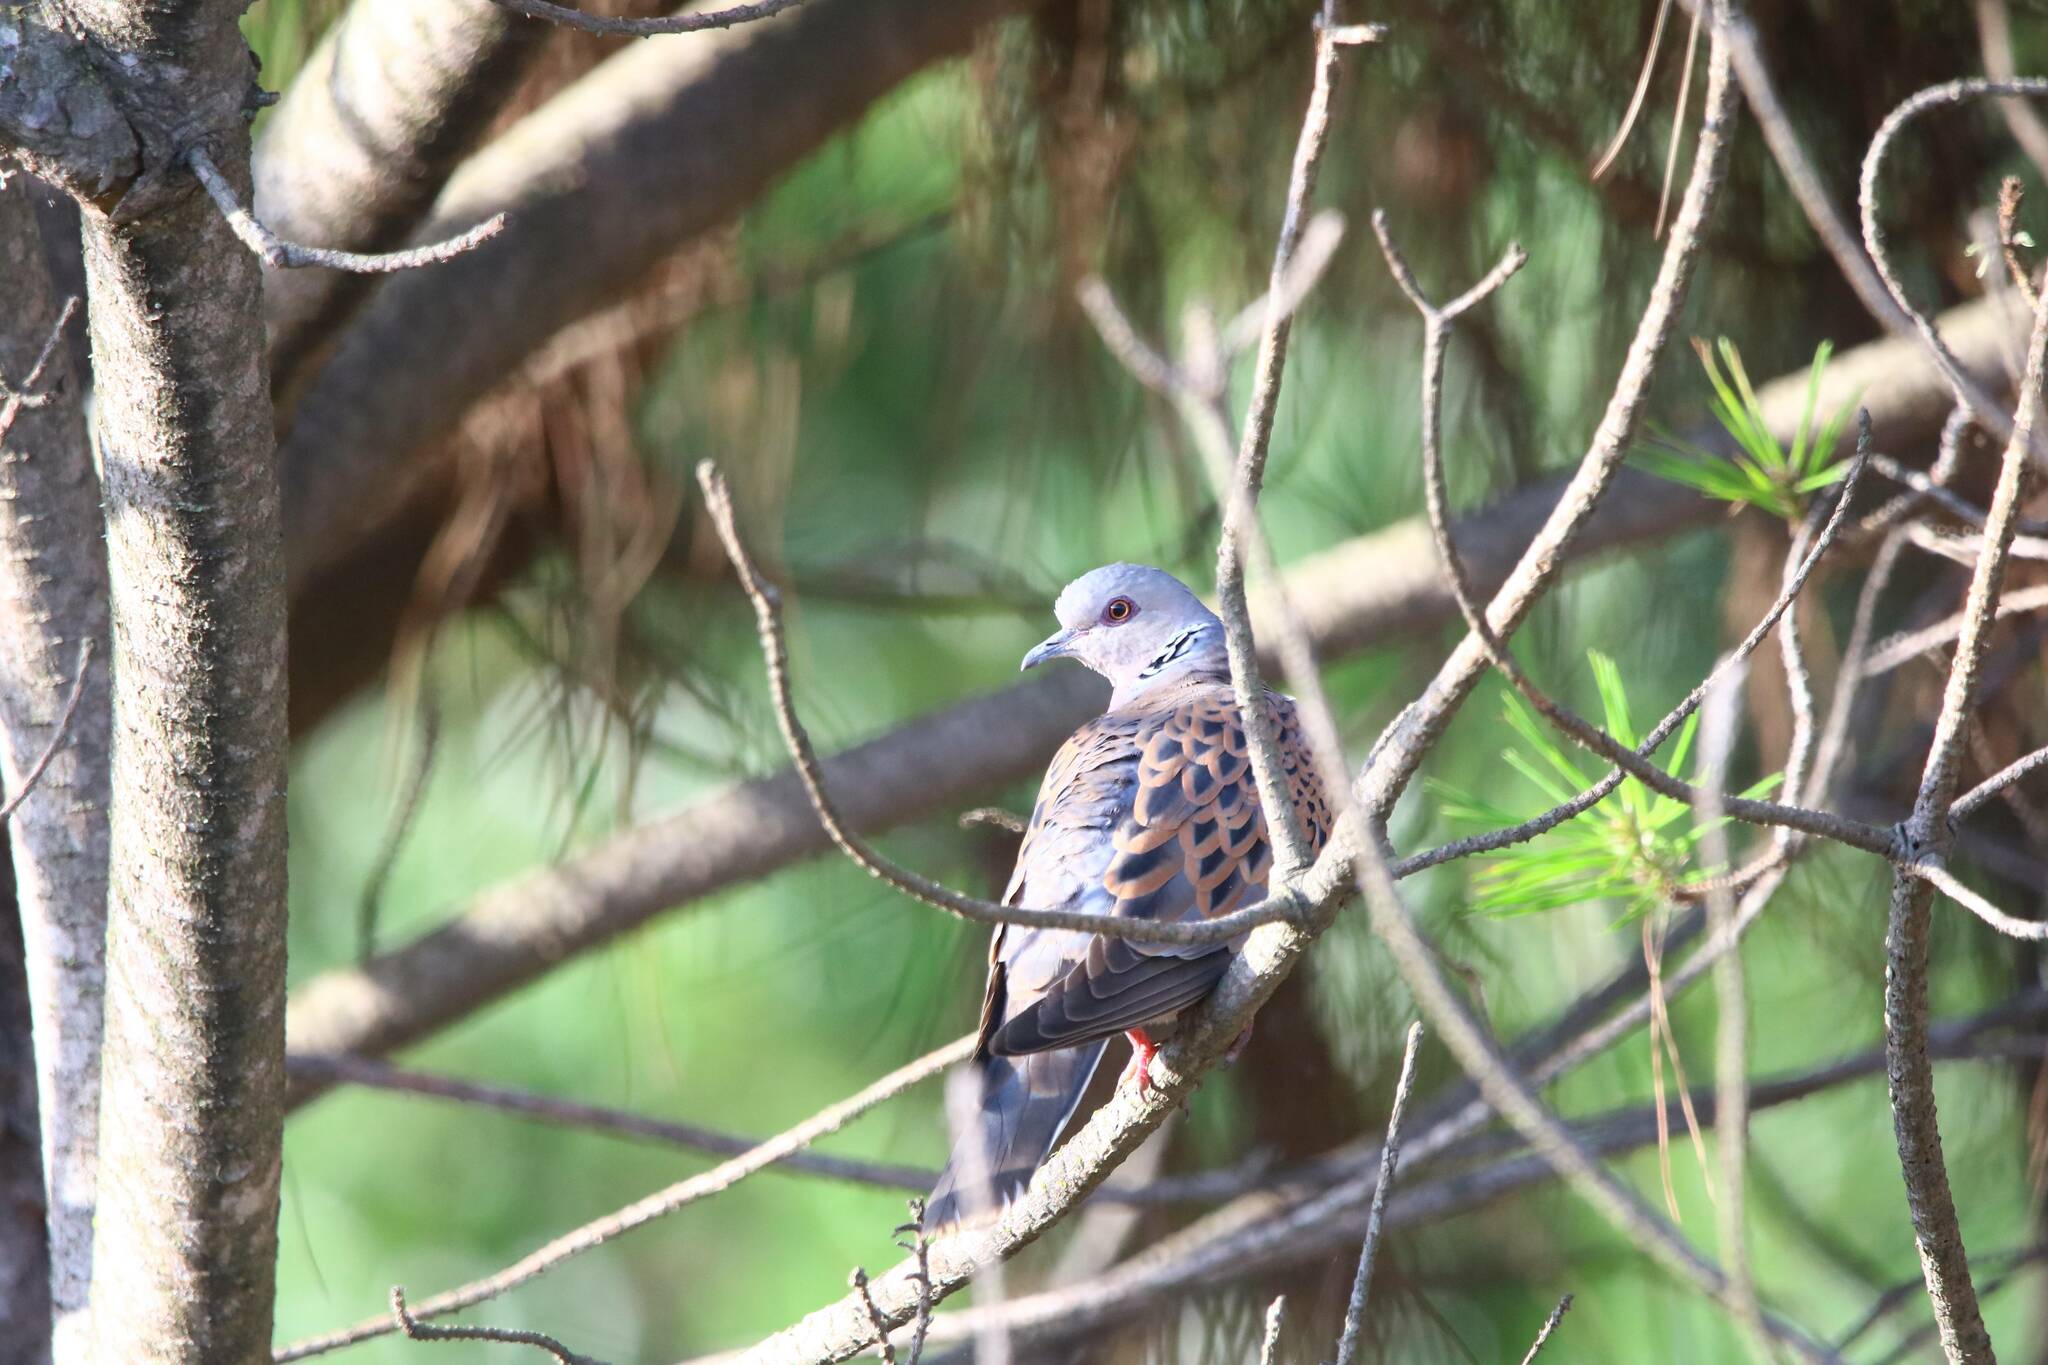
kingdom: Animalia
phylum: Chordata
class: Aves
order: Columbiformes
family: Columbidae
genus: Streptopelia
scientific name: Streptopelia turtur
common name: European turtle dove
